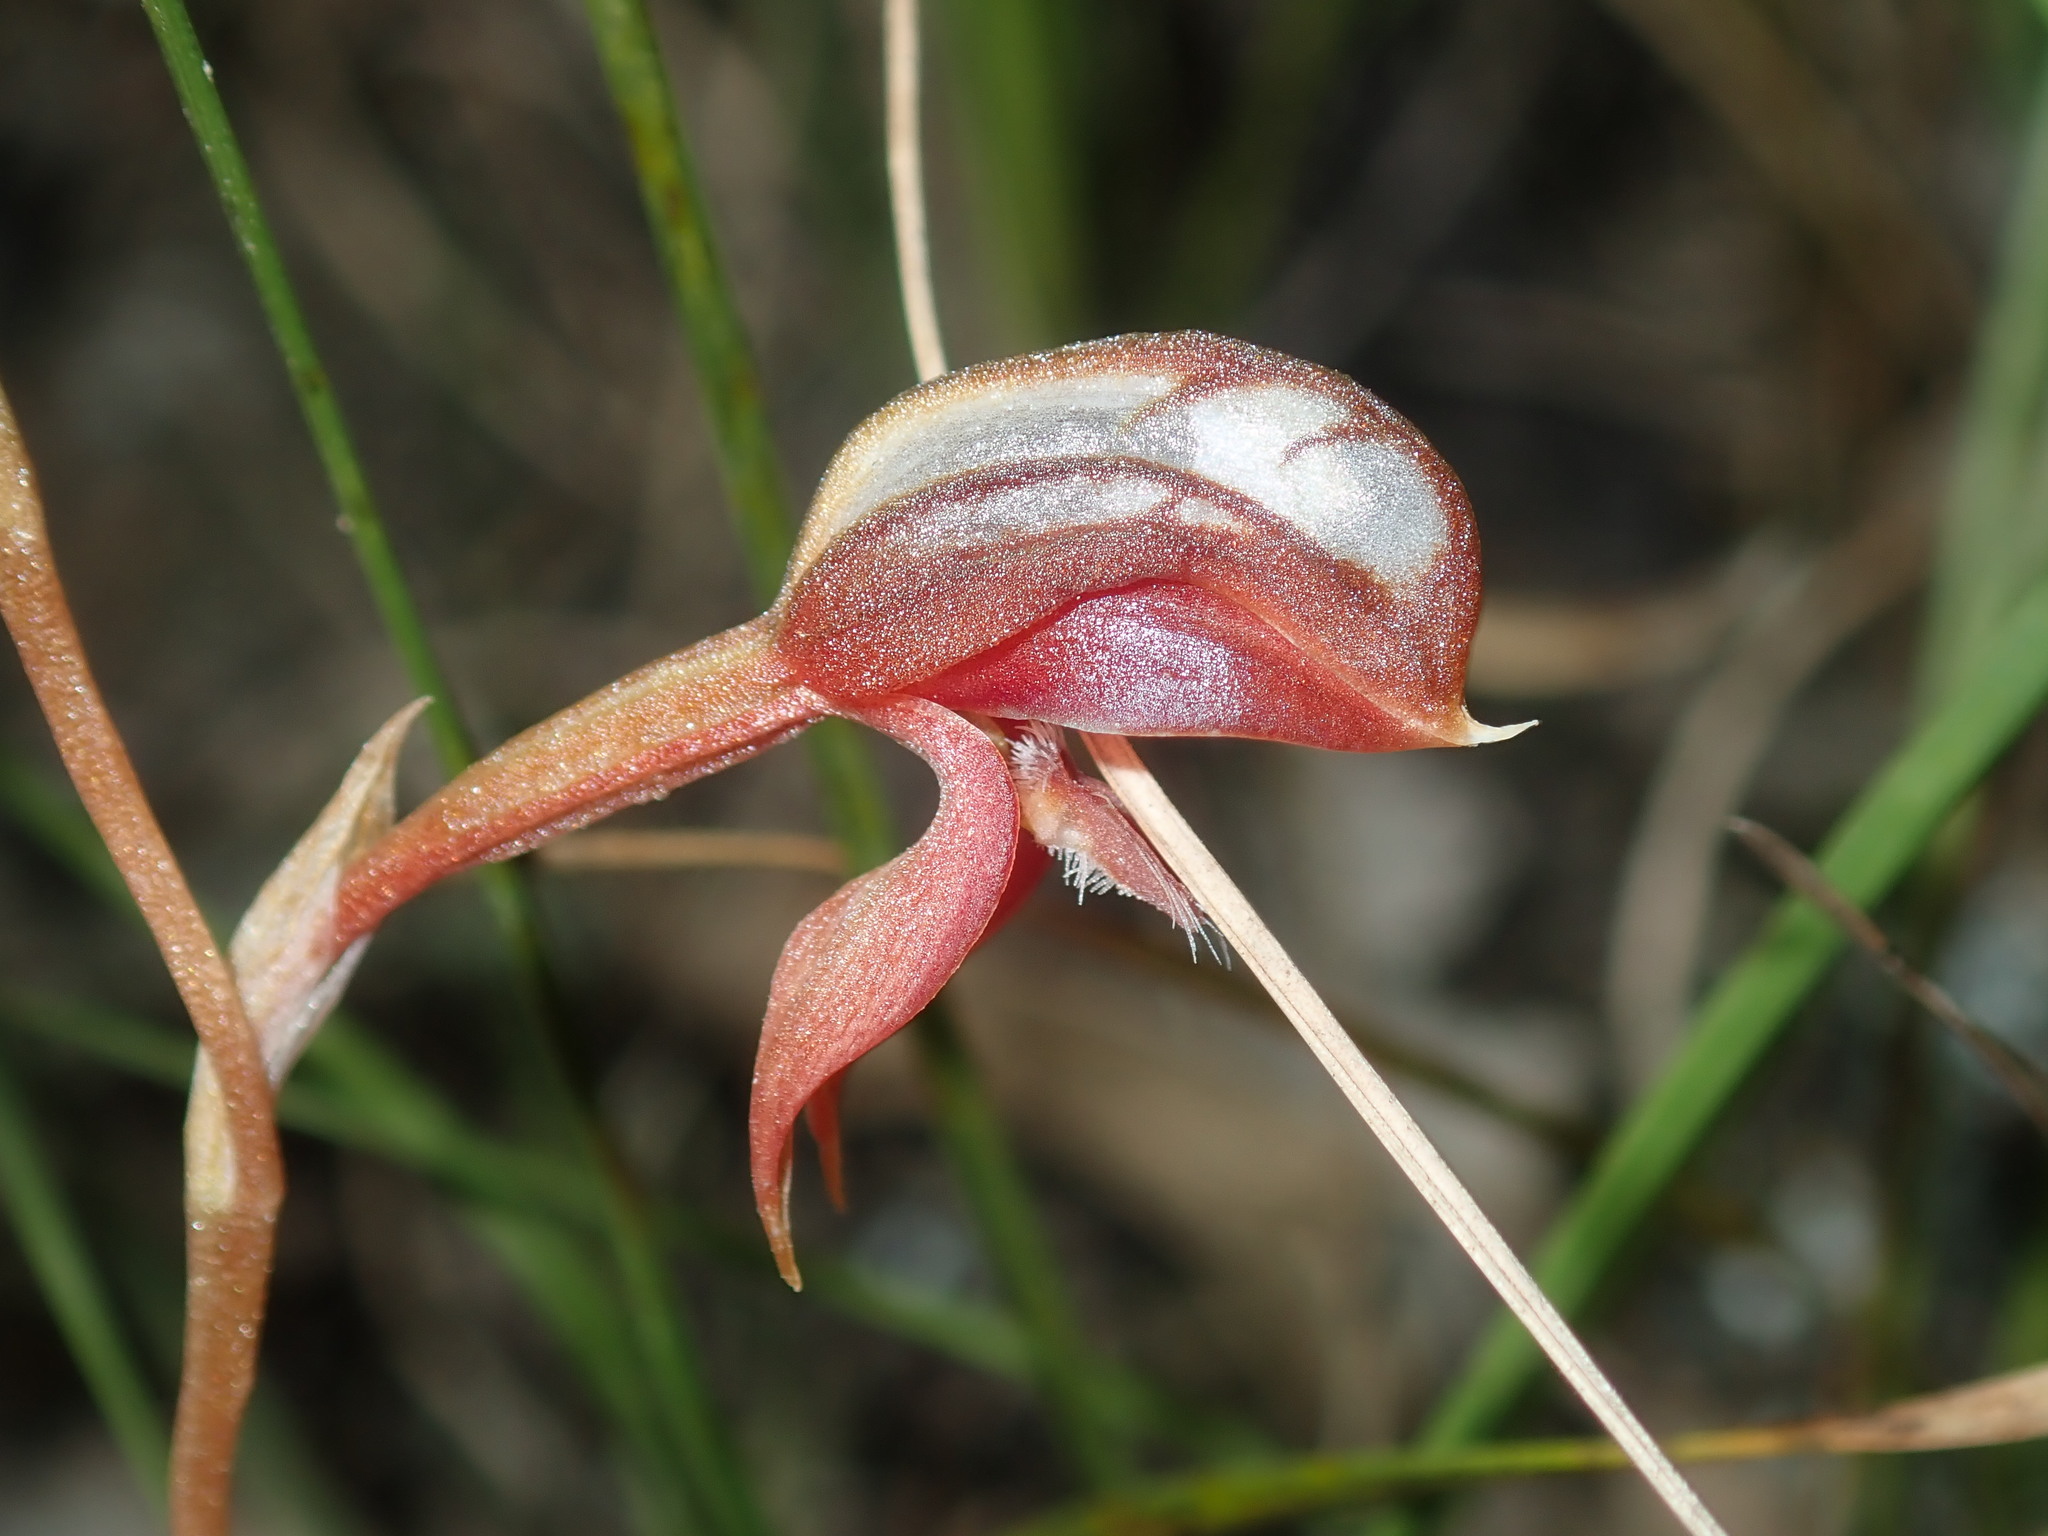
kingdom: Plantae
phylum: Tracheophyta
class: Liliopsida
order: Asparagales
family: Orchidaceae
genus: Pterostylis
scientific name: Pterostylis rufa
